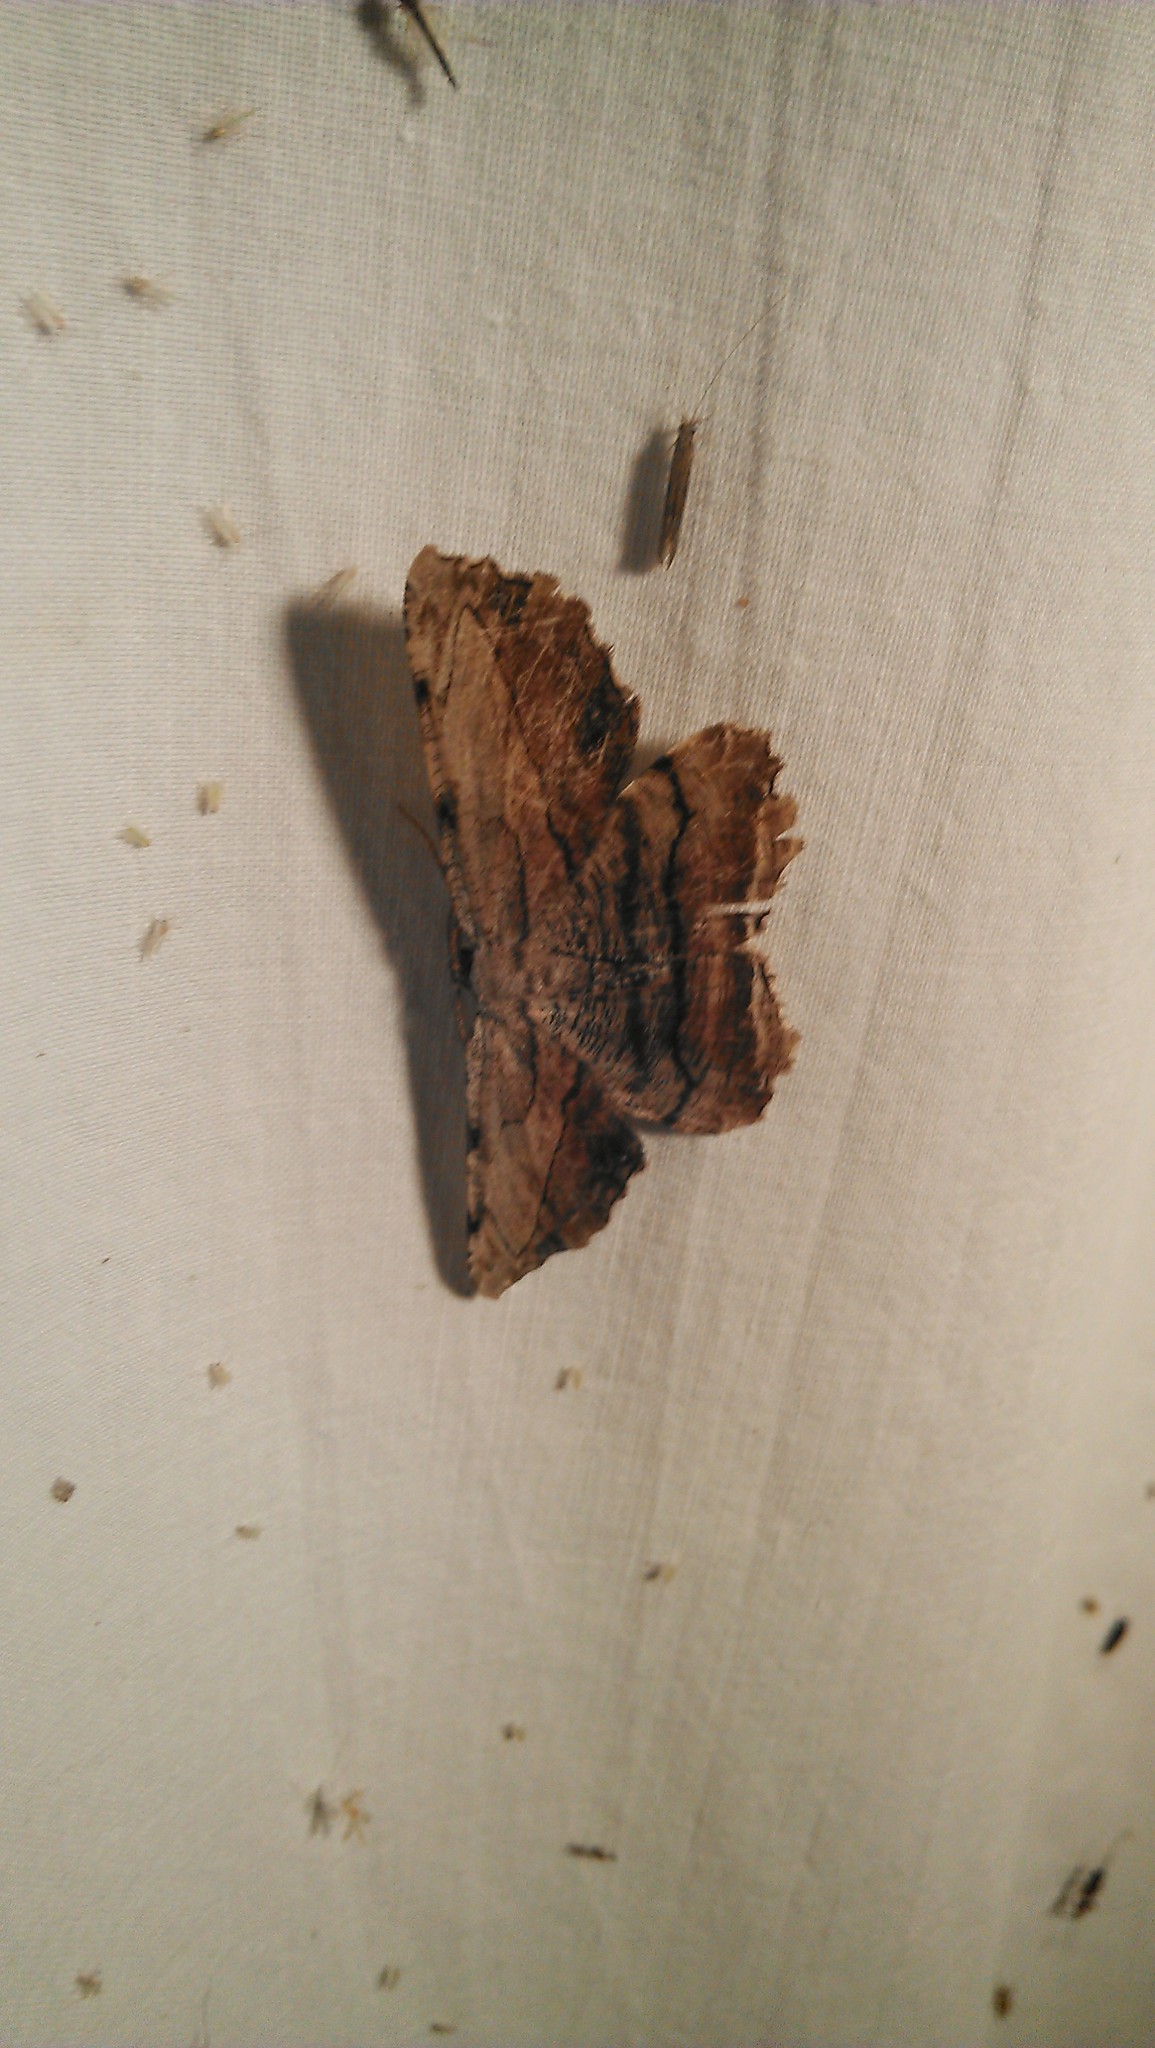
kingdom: Animalia
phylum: Arthropoda
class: Insecta
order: Lepidoptera
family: Geometridae
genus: Lytrosis
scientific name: Lytrosis unitaria
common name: Common lytrosis
